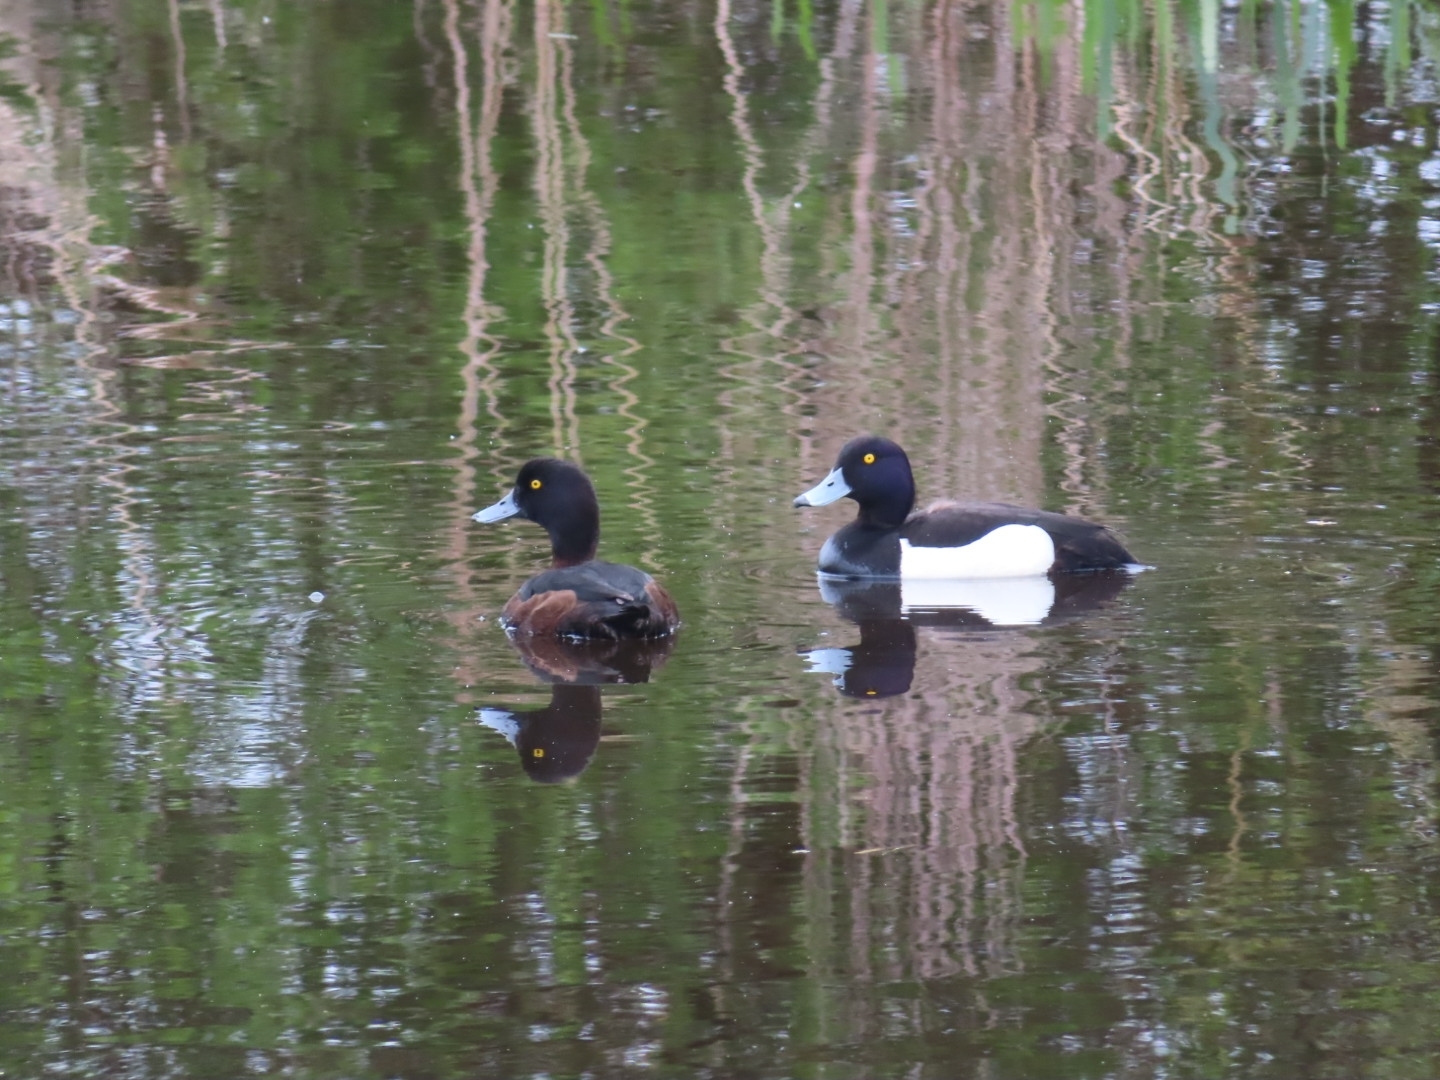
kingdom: Animalia
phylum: Chordata
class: Aves
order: Anseriformes
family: Anatidae
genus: Aythya
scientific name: Aythya fuligula
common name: Tufted duck
